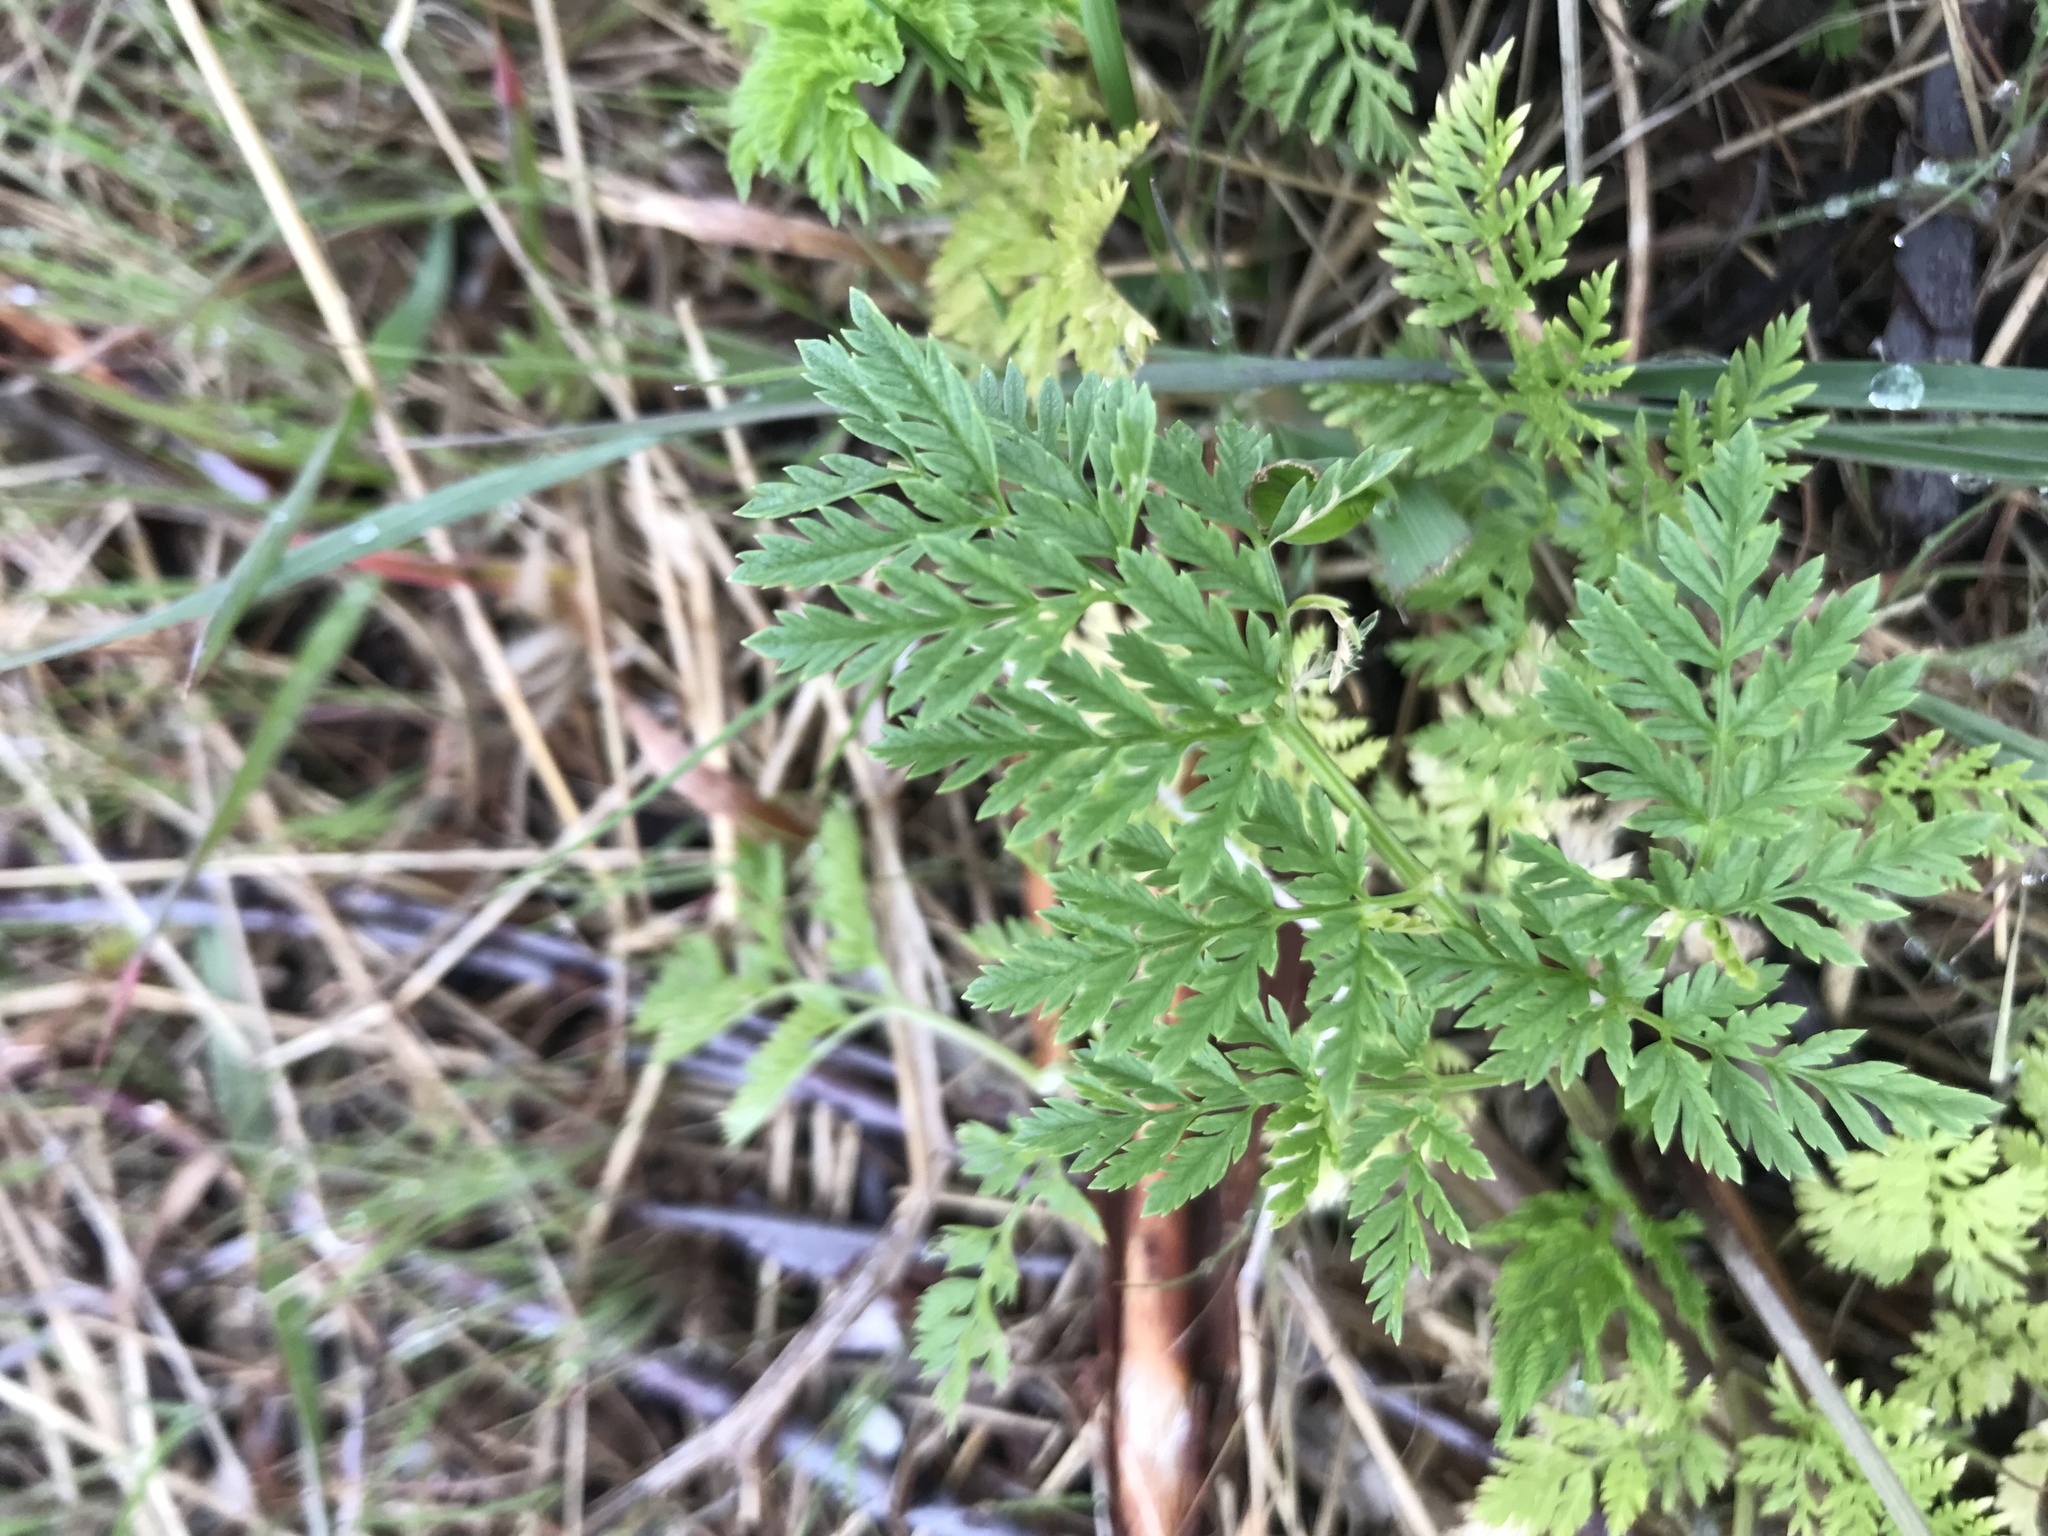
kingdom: Plantae
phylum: Tracheophyta
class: Polypodiopsida
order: Ophioglossales
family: Ophioglossaceae
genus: Botrypus
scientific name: Botrypus virginianus
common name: Common grapefern
